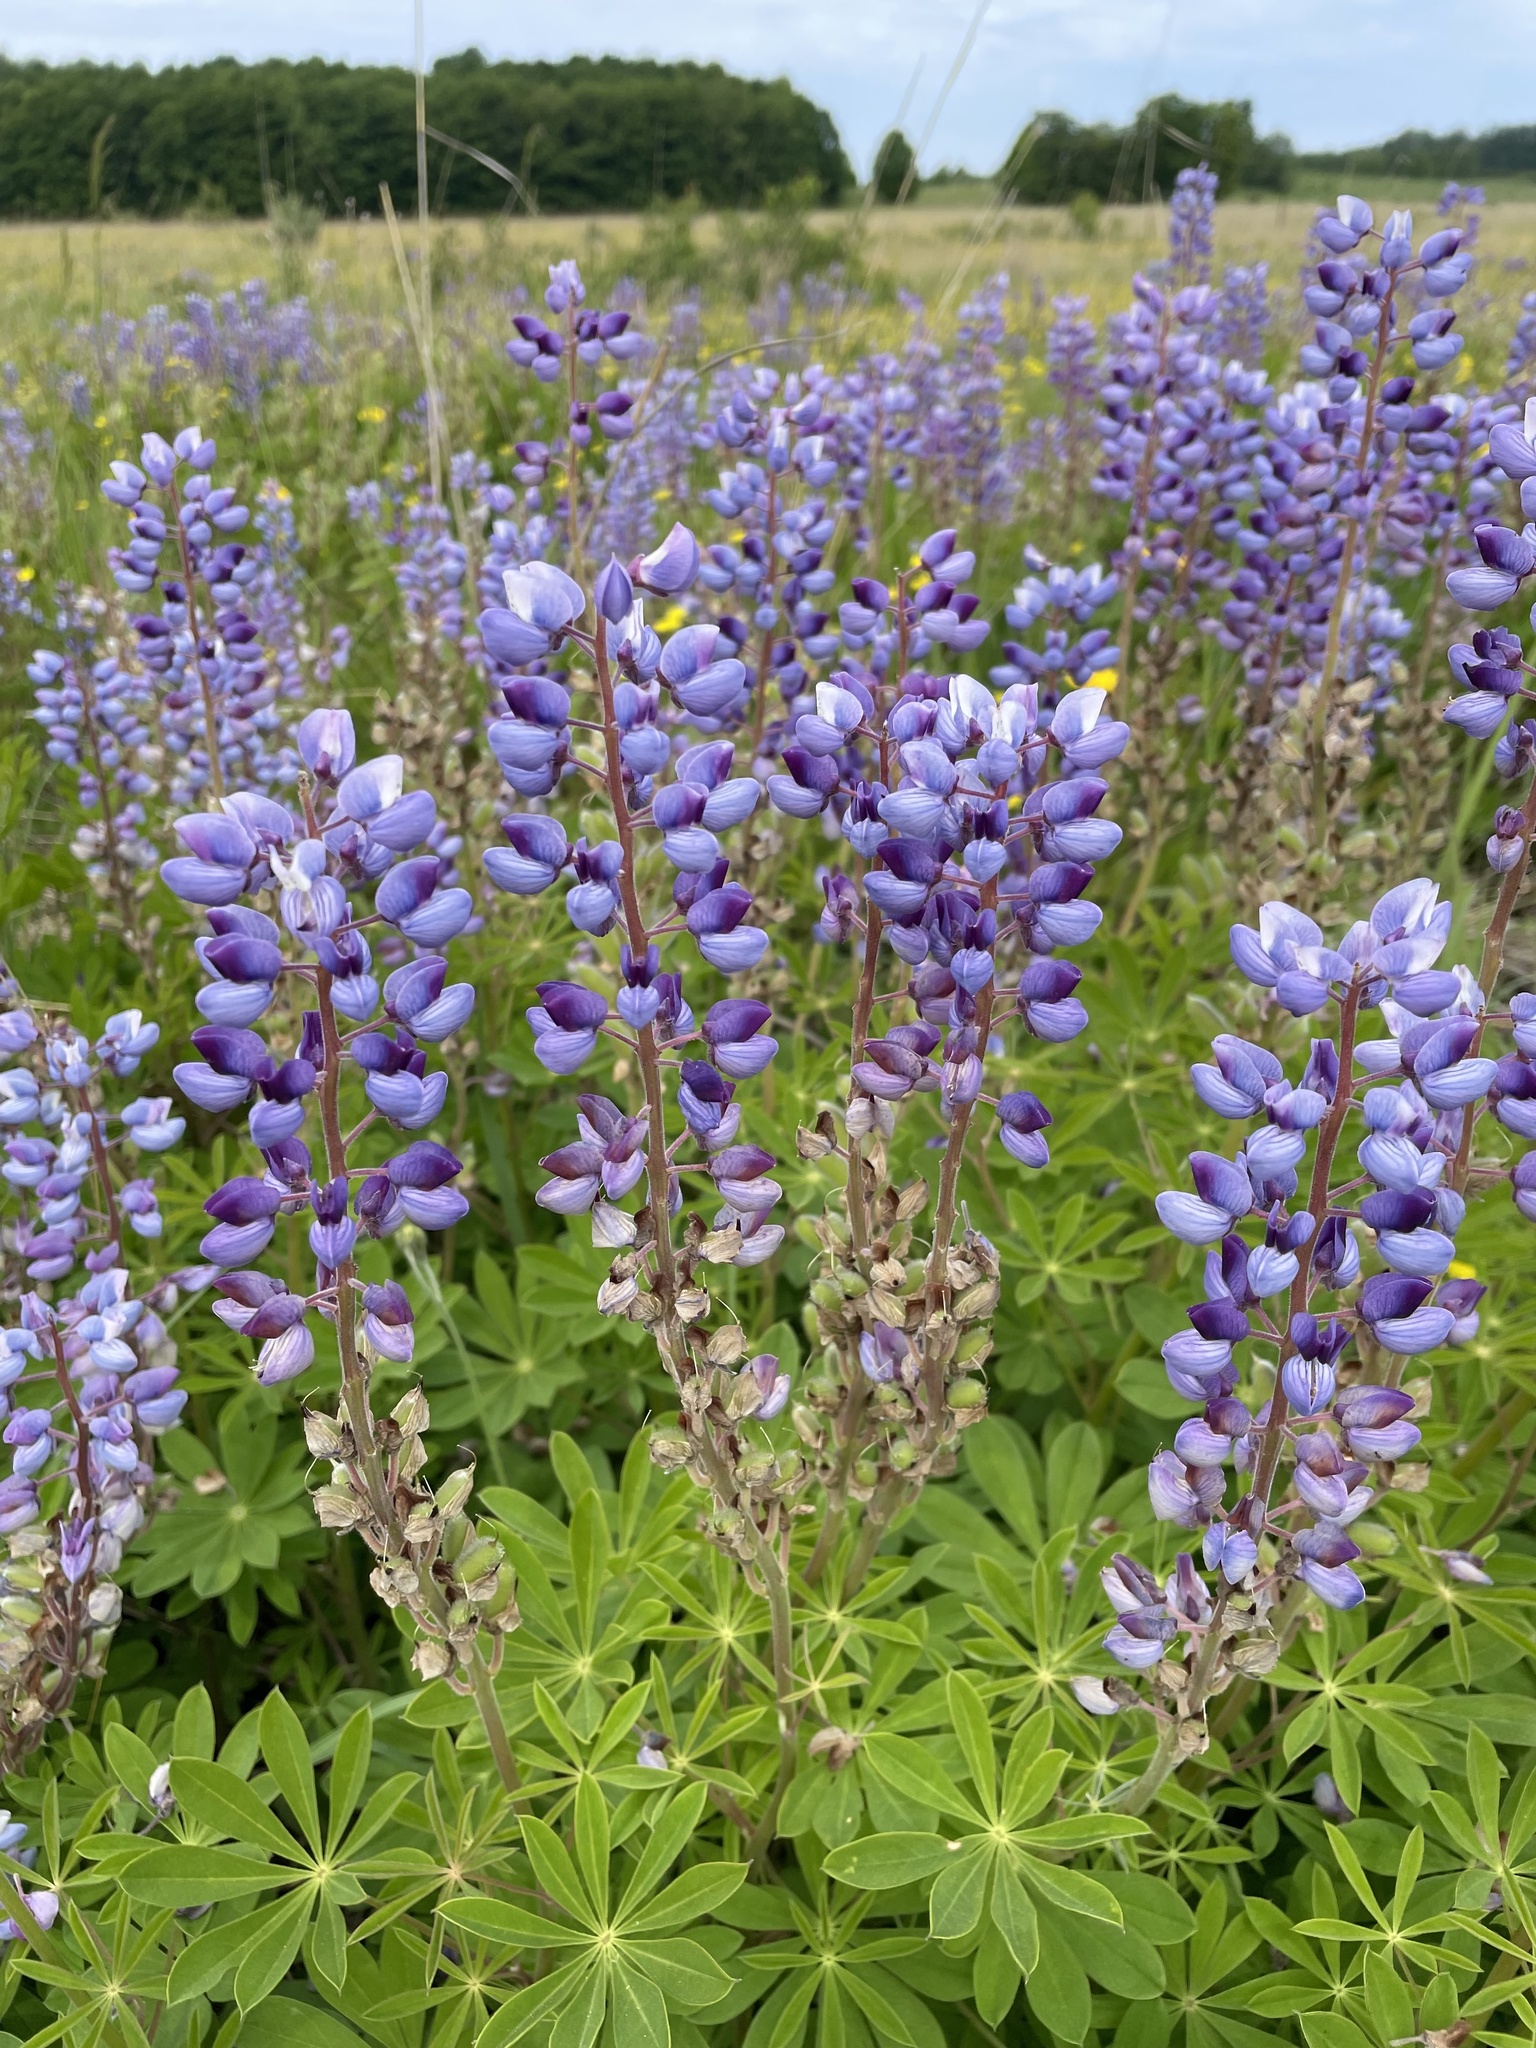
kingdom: Plantae
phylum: Tracheophyta
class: Magnoliopsida
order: Fabales
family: Fabaceae
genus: Lupinus
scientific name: Lupinus perennis
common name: Sundial lupine
